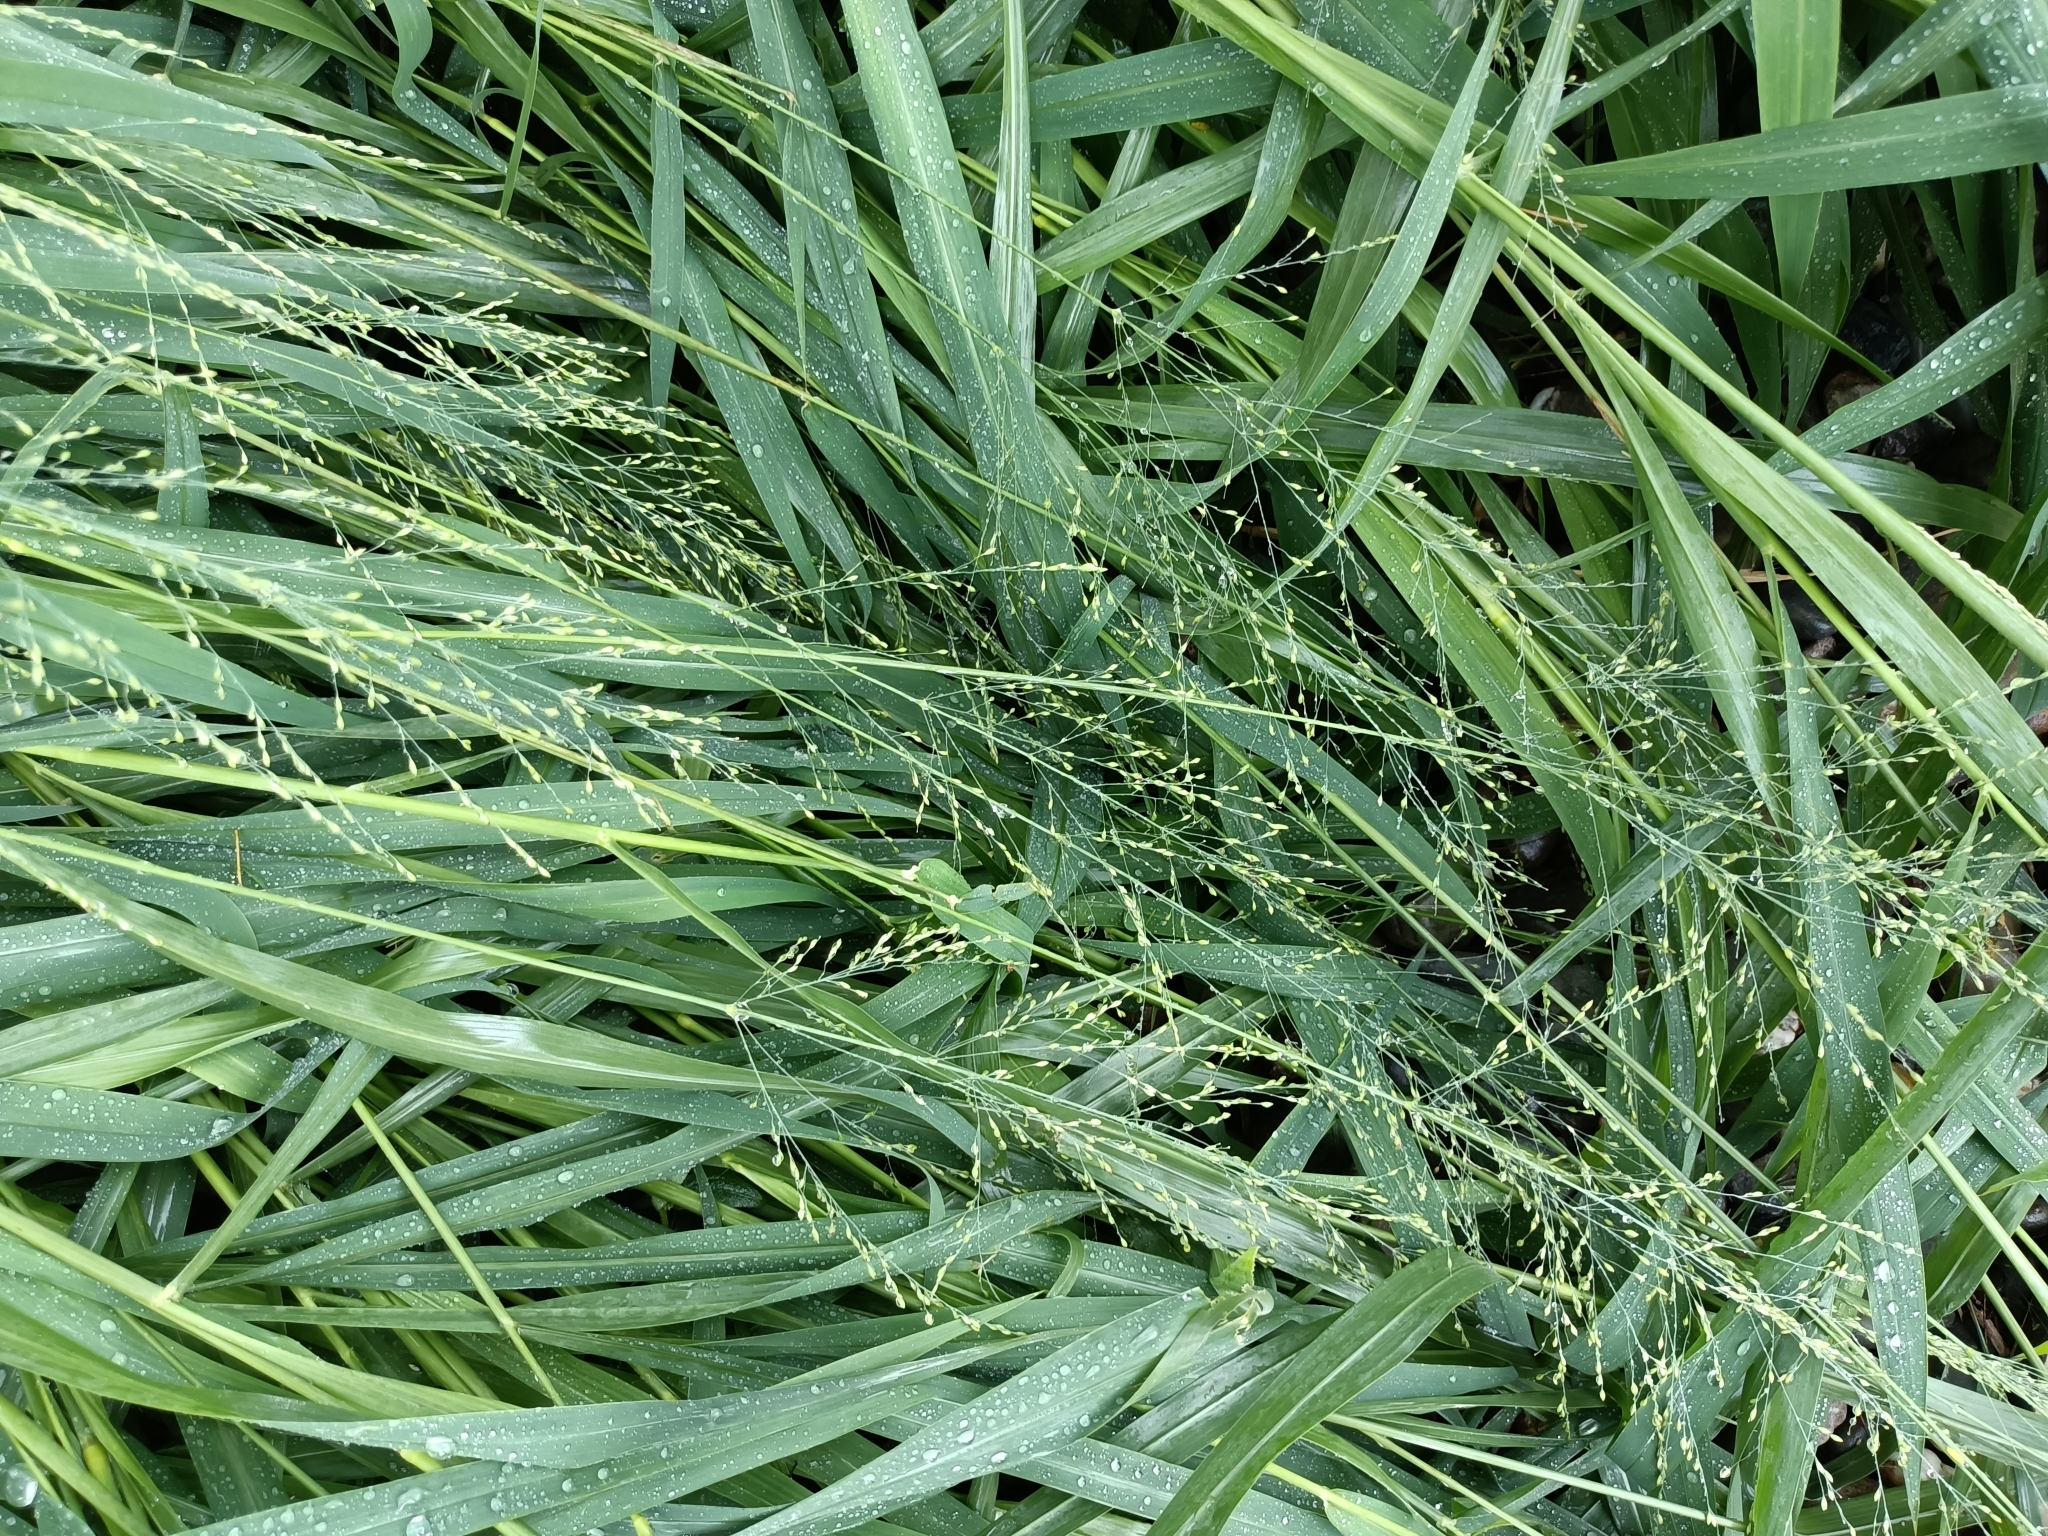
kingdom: Plantae
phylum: Tracheophyta
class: Liliopsida
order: Poales
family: Poaceae
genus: Megathyrsus
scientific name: Megathyrsus maximus
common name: Guineagrass
